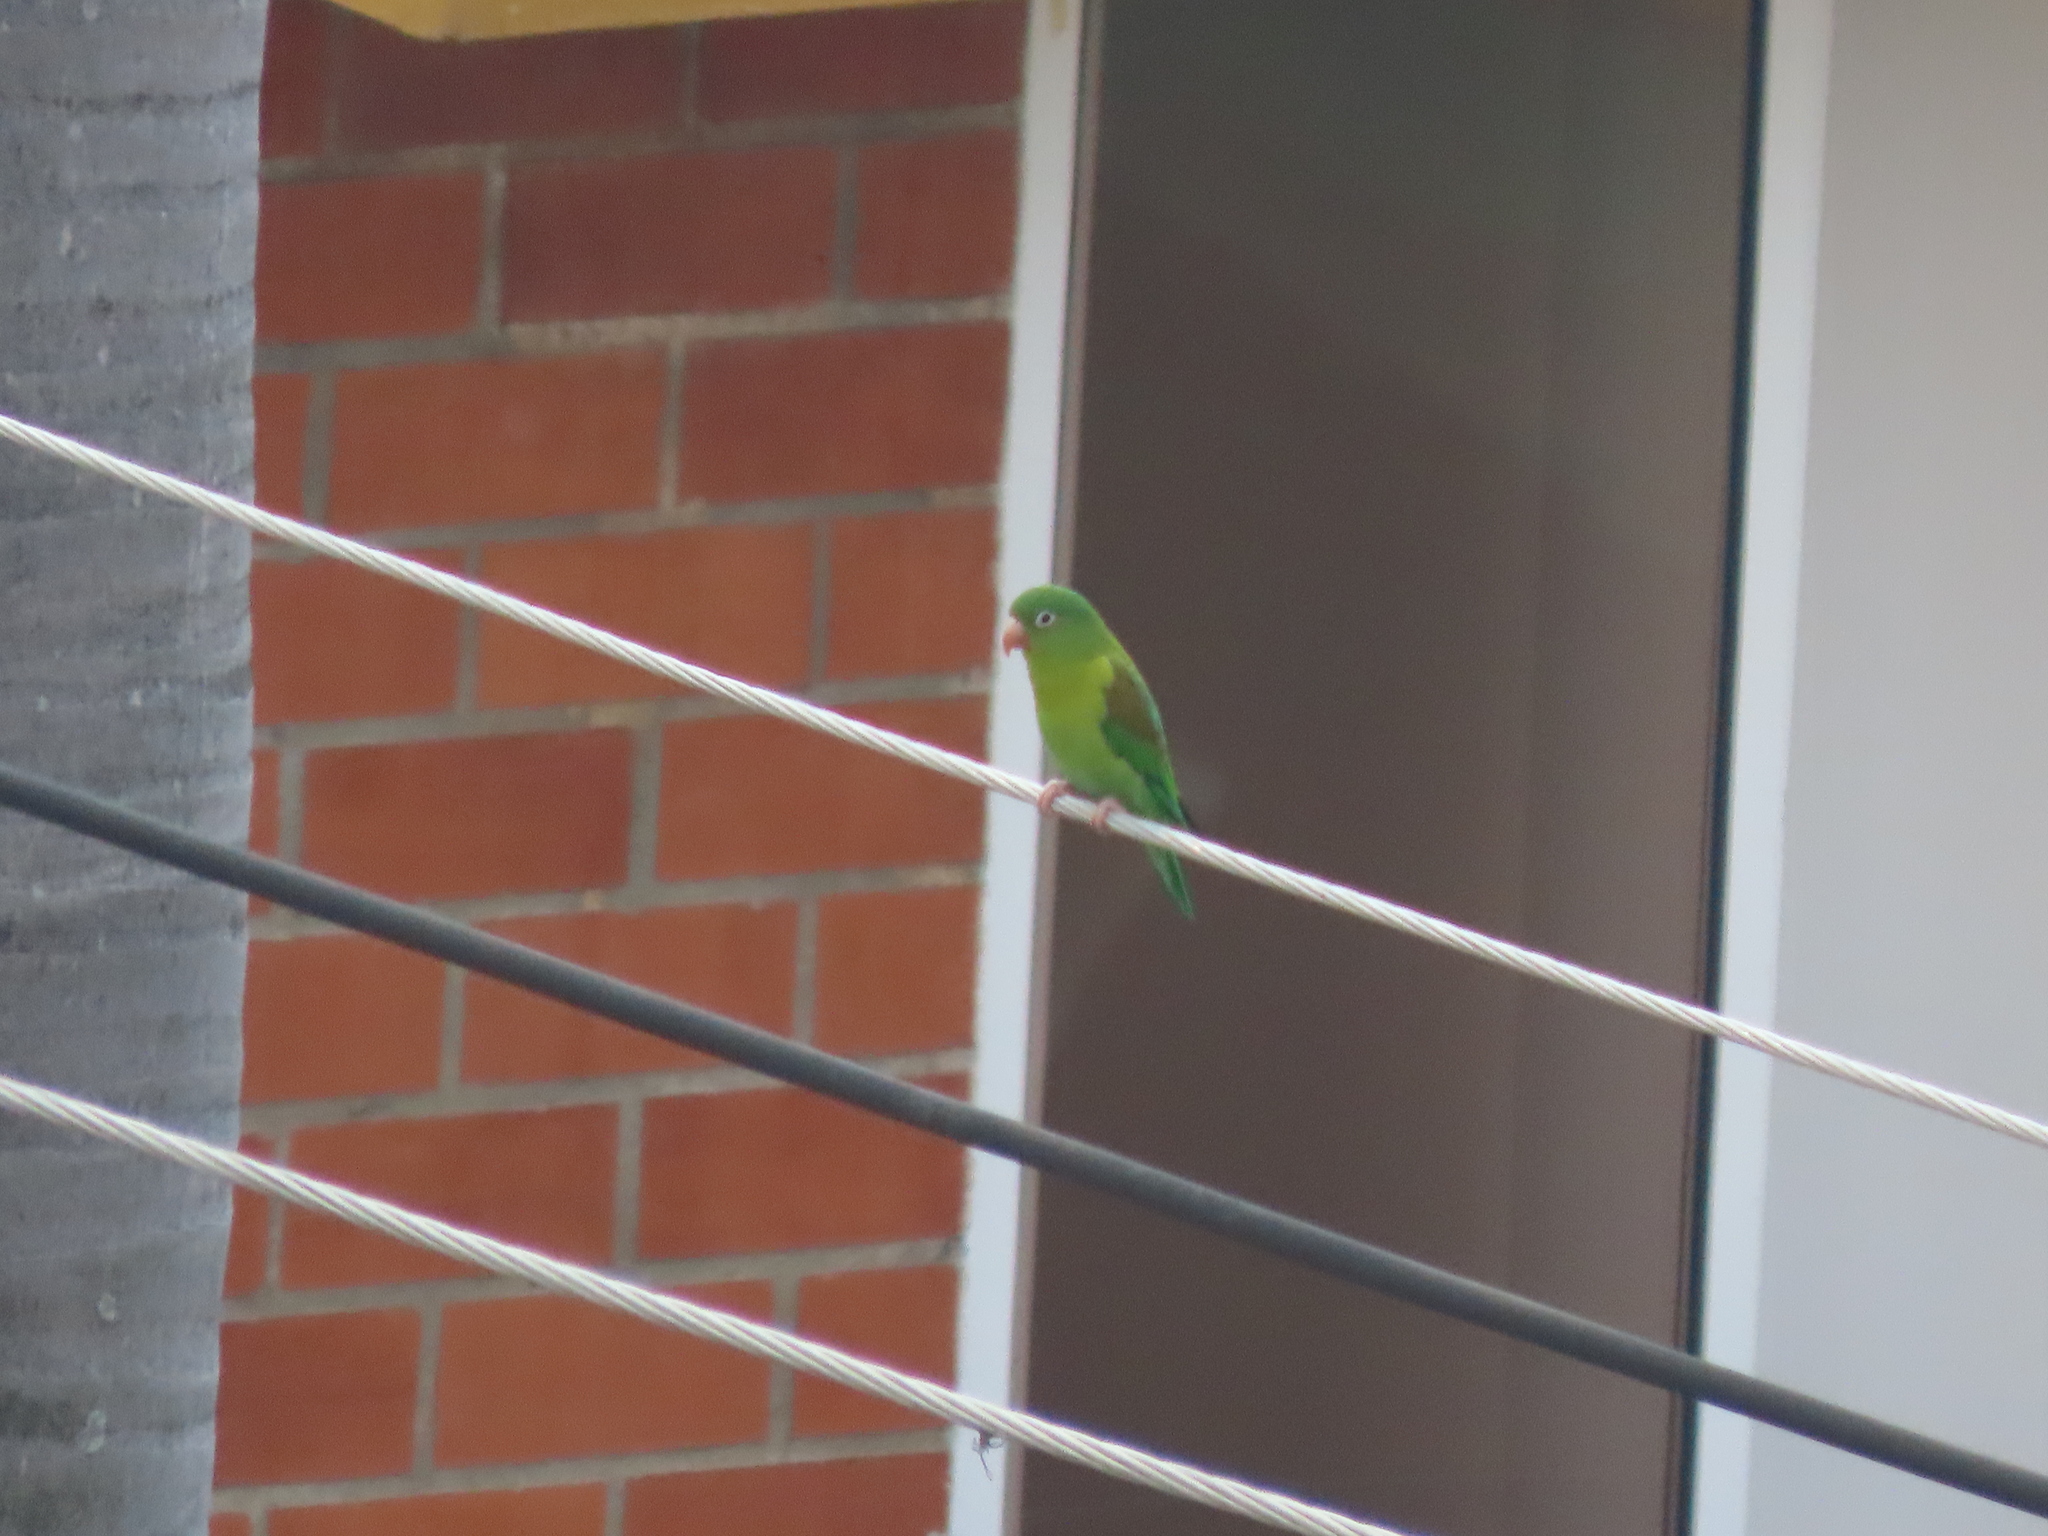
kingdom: Animalia
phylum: Chordata
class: Aves
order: Psittaciformes
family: Psittacidae
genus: Brotogeris
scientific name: Brotogeris jugularis
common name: Orange-chinned parakeet
